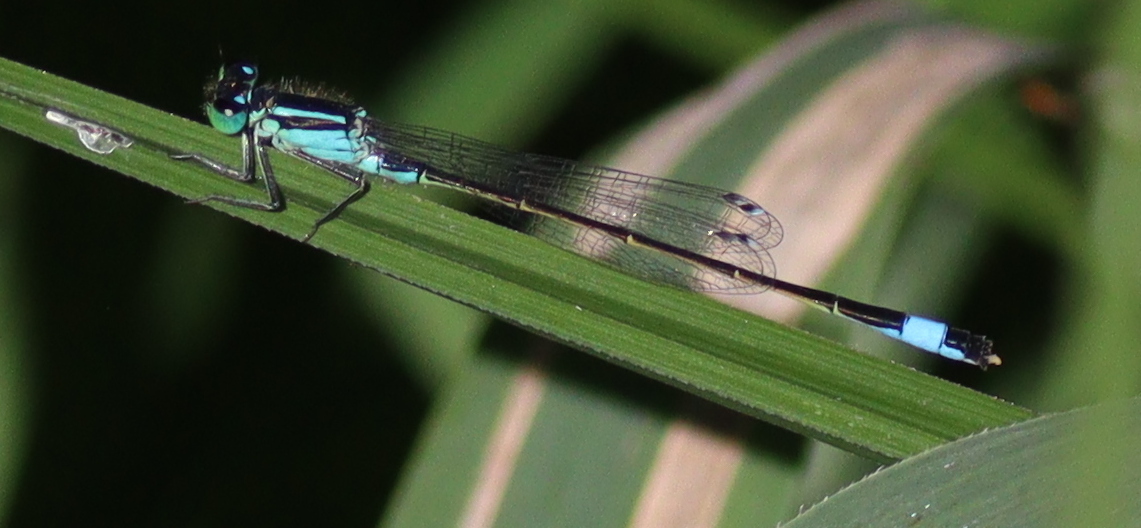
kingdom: Animalia
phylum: Arthropoda
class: Insecta
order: Odonata
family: Coenagrionidae
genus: Ischnura
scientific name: Ischnura elegans
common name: Blue-tailed damselfly
